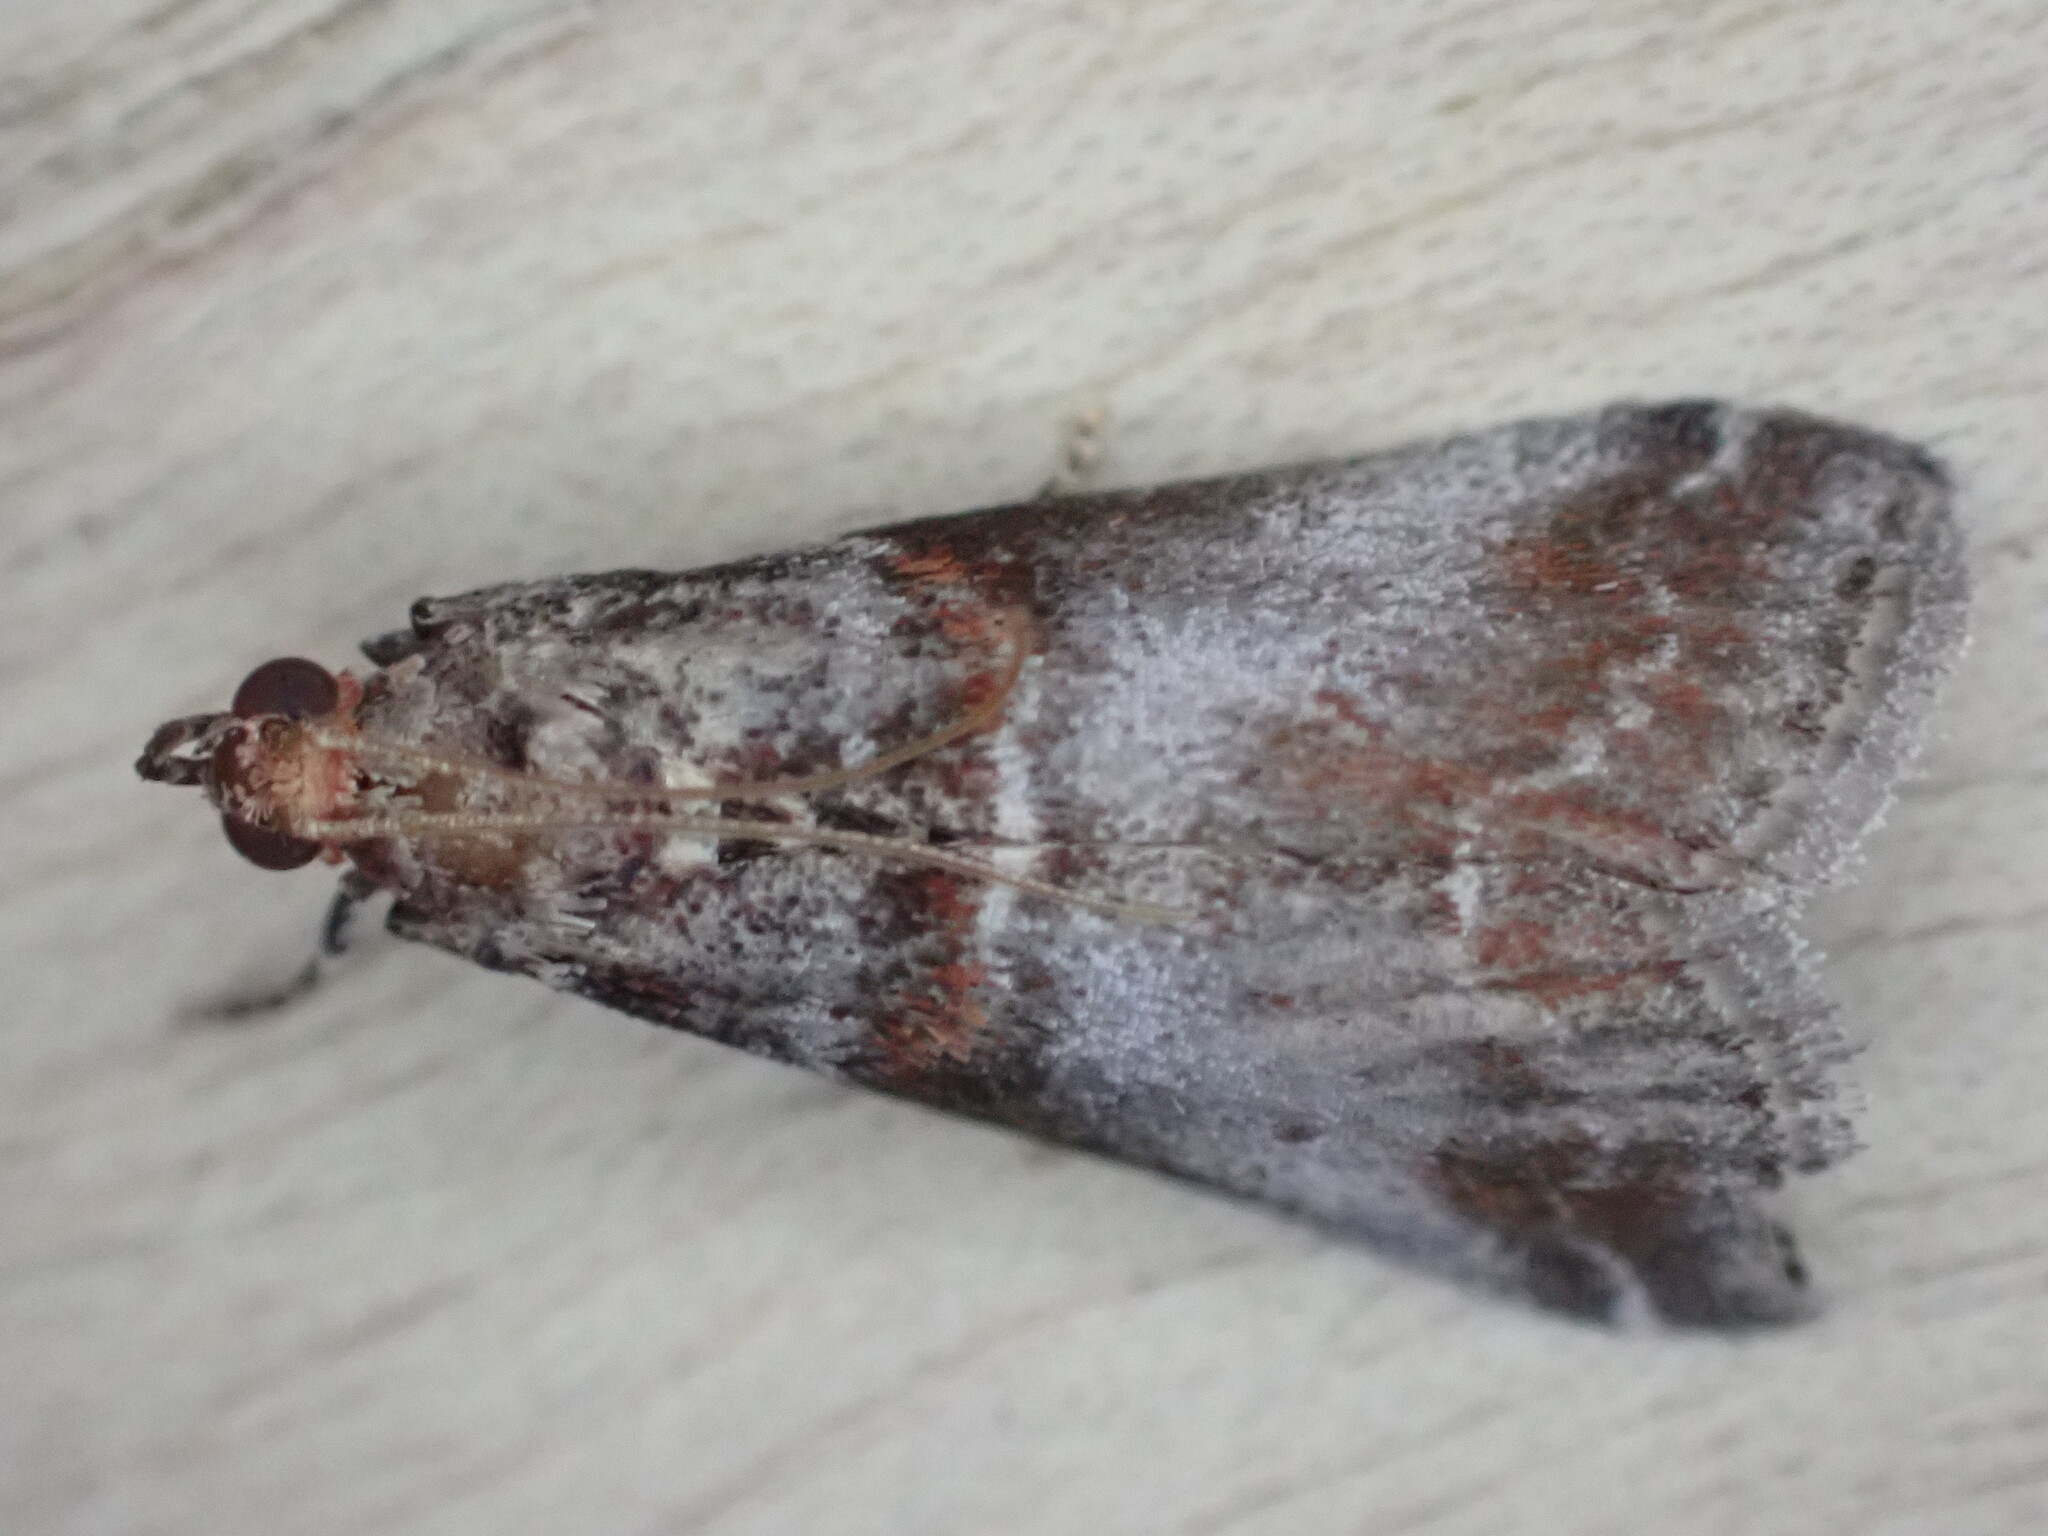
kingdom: Animalia
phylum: Arthropoda
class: Insecta
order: Lepidoptera
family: Pyralidae
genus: Acrobasis
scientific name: Acrobasis advenella
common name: Grey knot-horn
